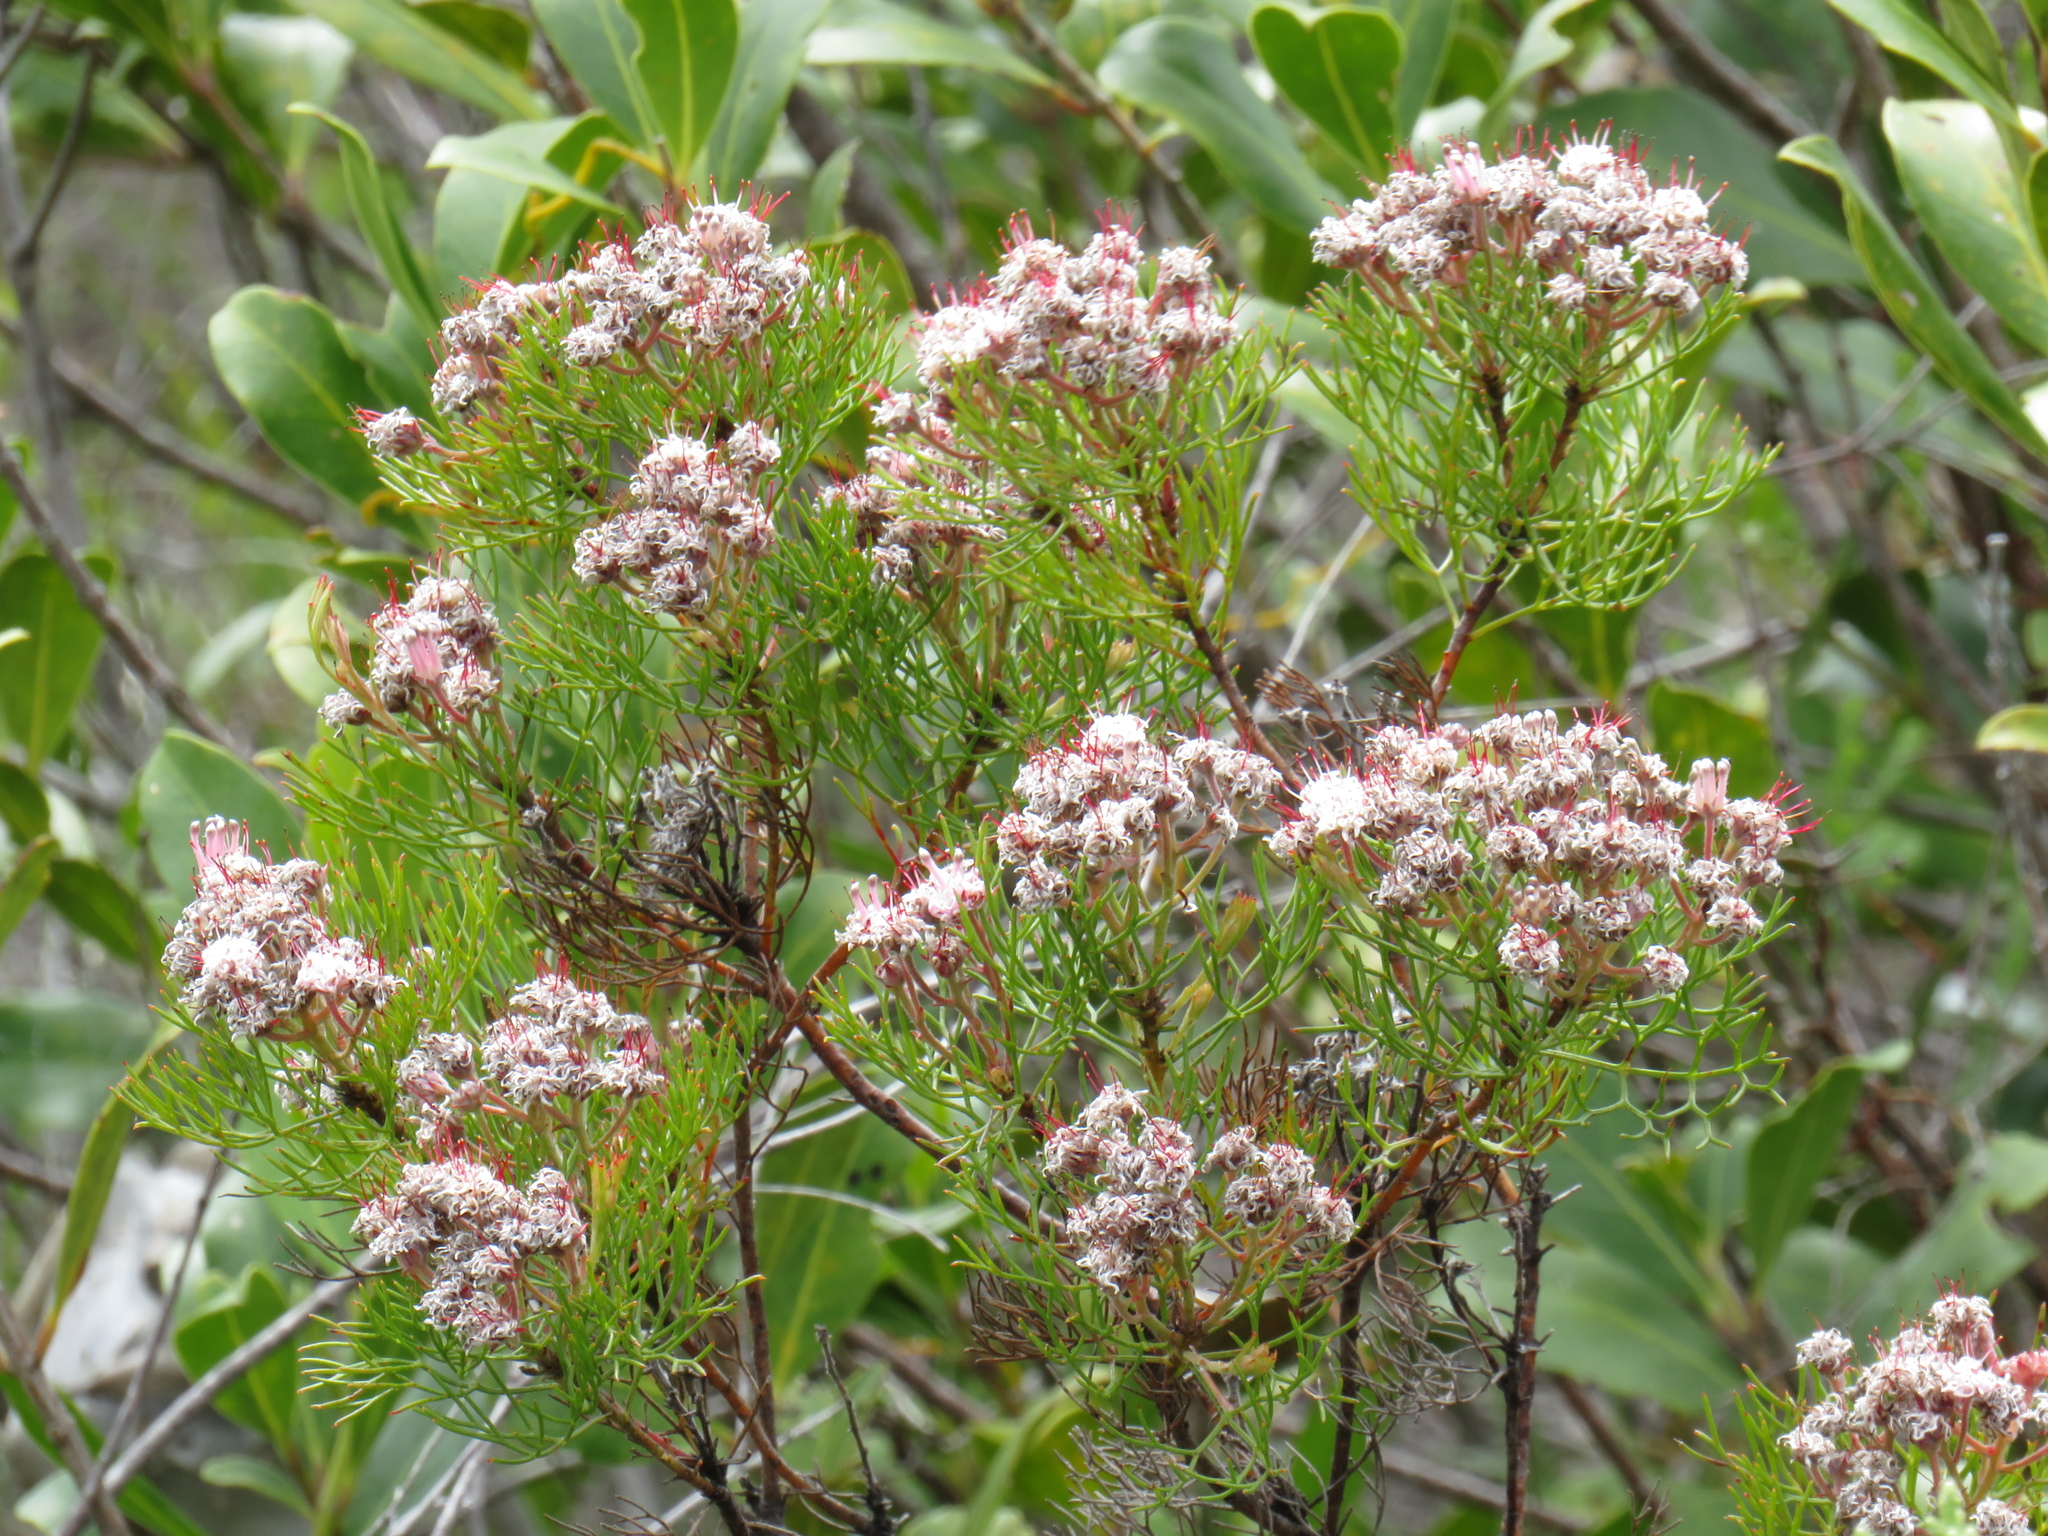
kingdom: Plantae
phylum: Tracheophyta
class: Magnoliopsida
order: Proteales
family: Proteaceae
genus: Serruria
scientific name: Serruria fasciflora
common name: Common pin spiderhead
